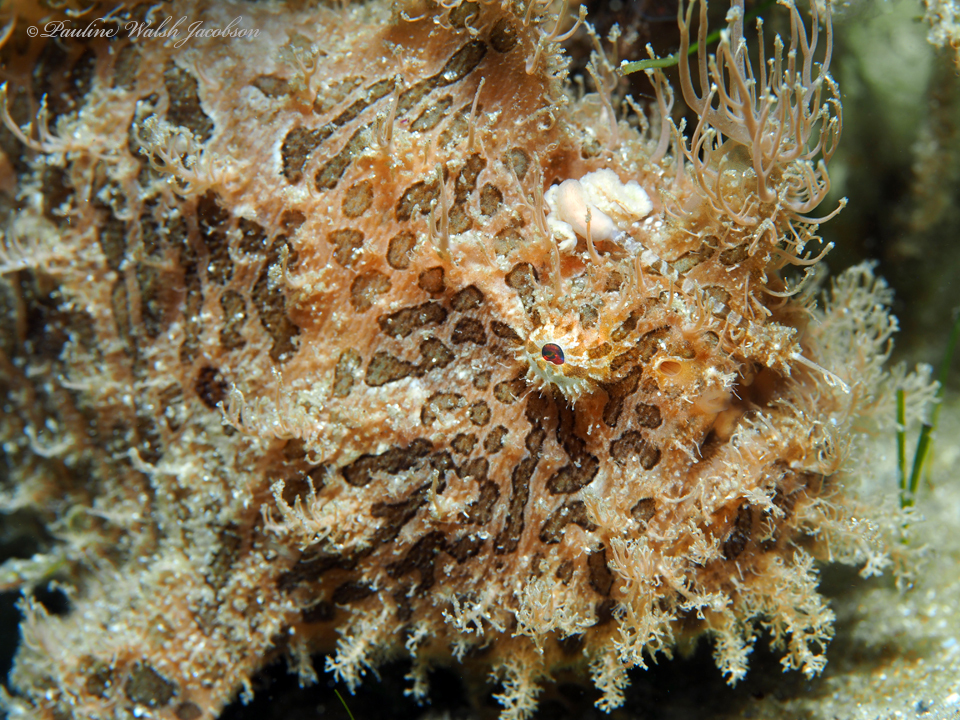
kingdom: Animalia
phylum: Chordata
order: Lophiiformes
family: Antennariidae
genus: Antennarius
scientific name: Antennarius striatus
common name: Striated frogfish
